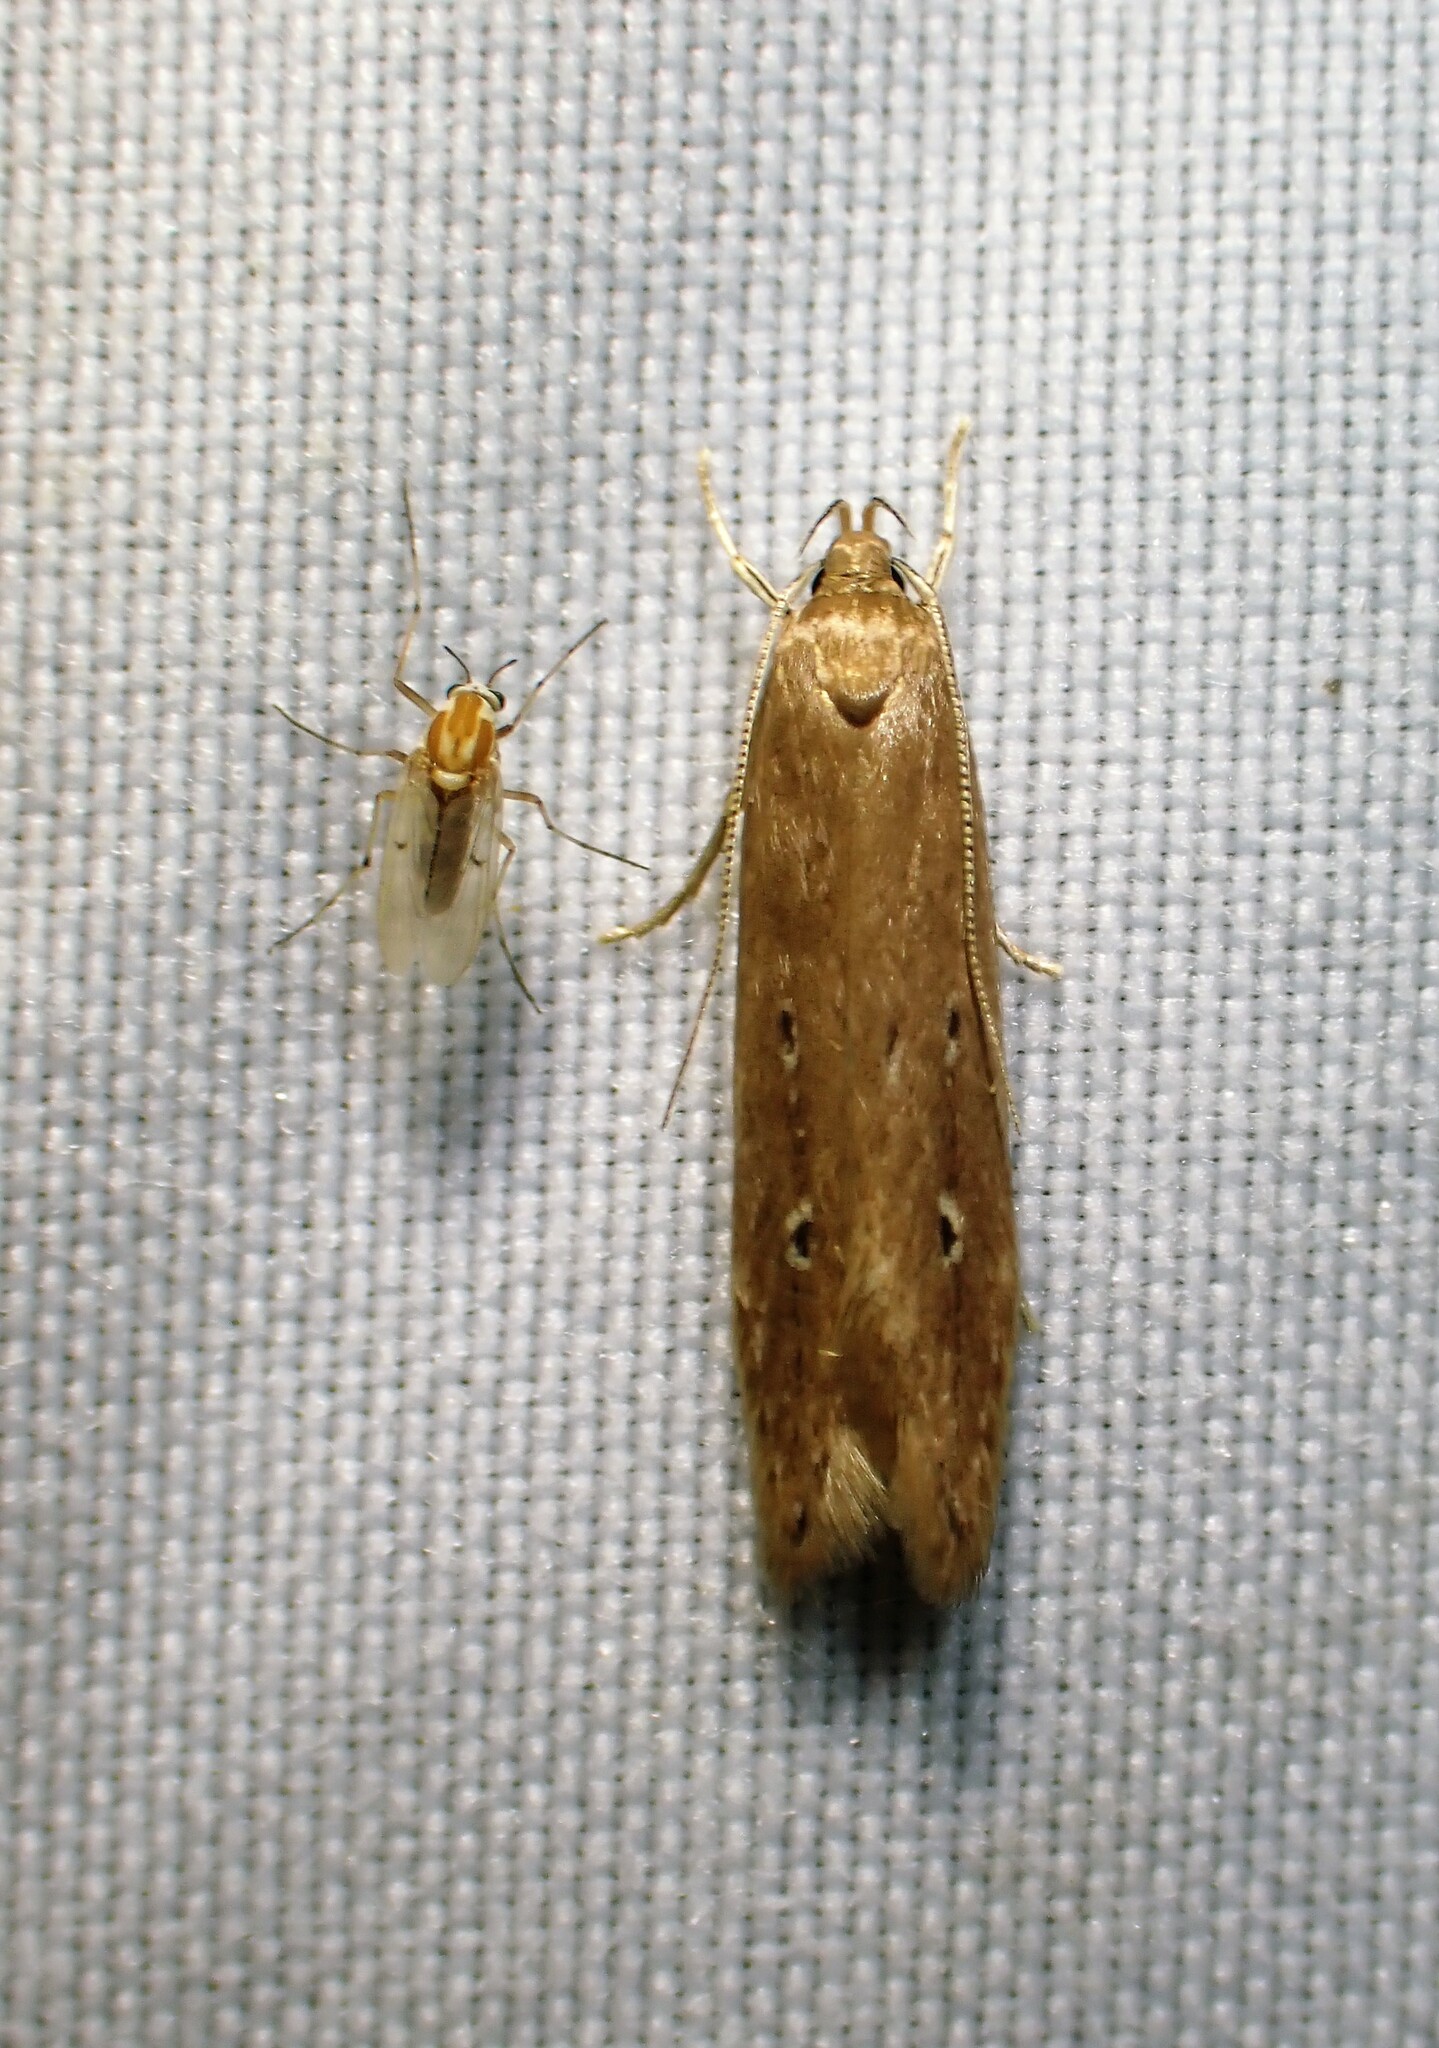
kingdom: Animalia
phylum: Arthropoda
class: Insecta
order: Lepidoptera
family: Cosmopterigidae
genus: Limnaecia
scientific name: Limnaecia phragmitella
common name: Bulrush cosmet
